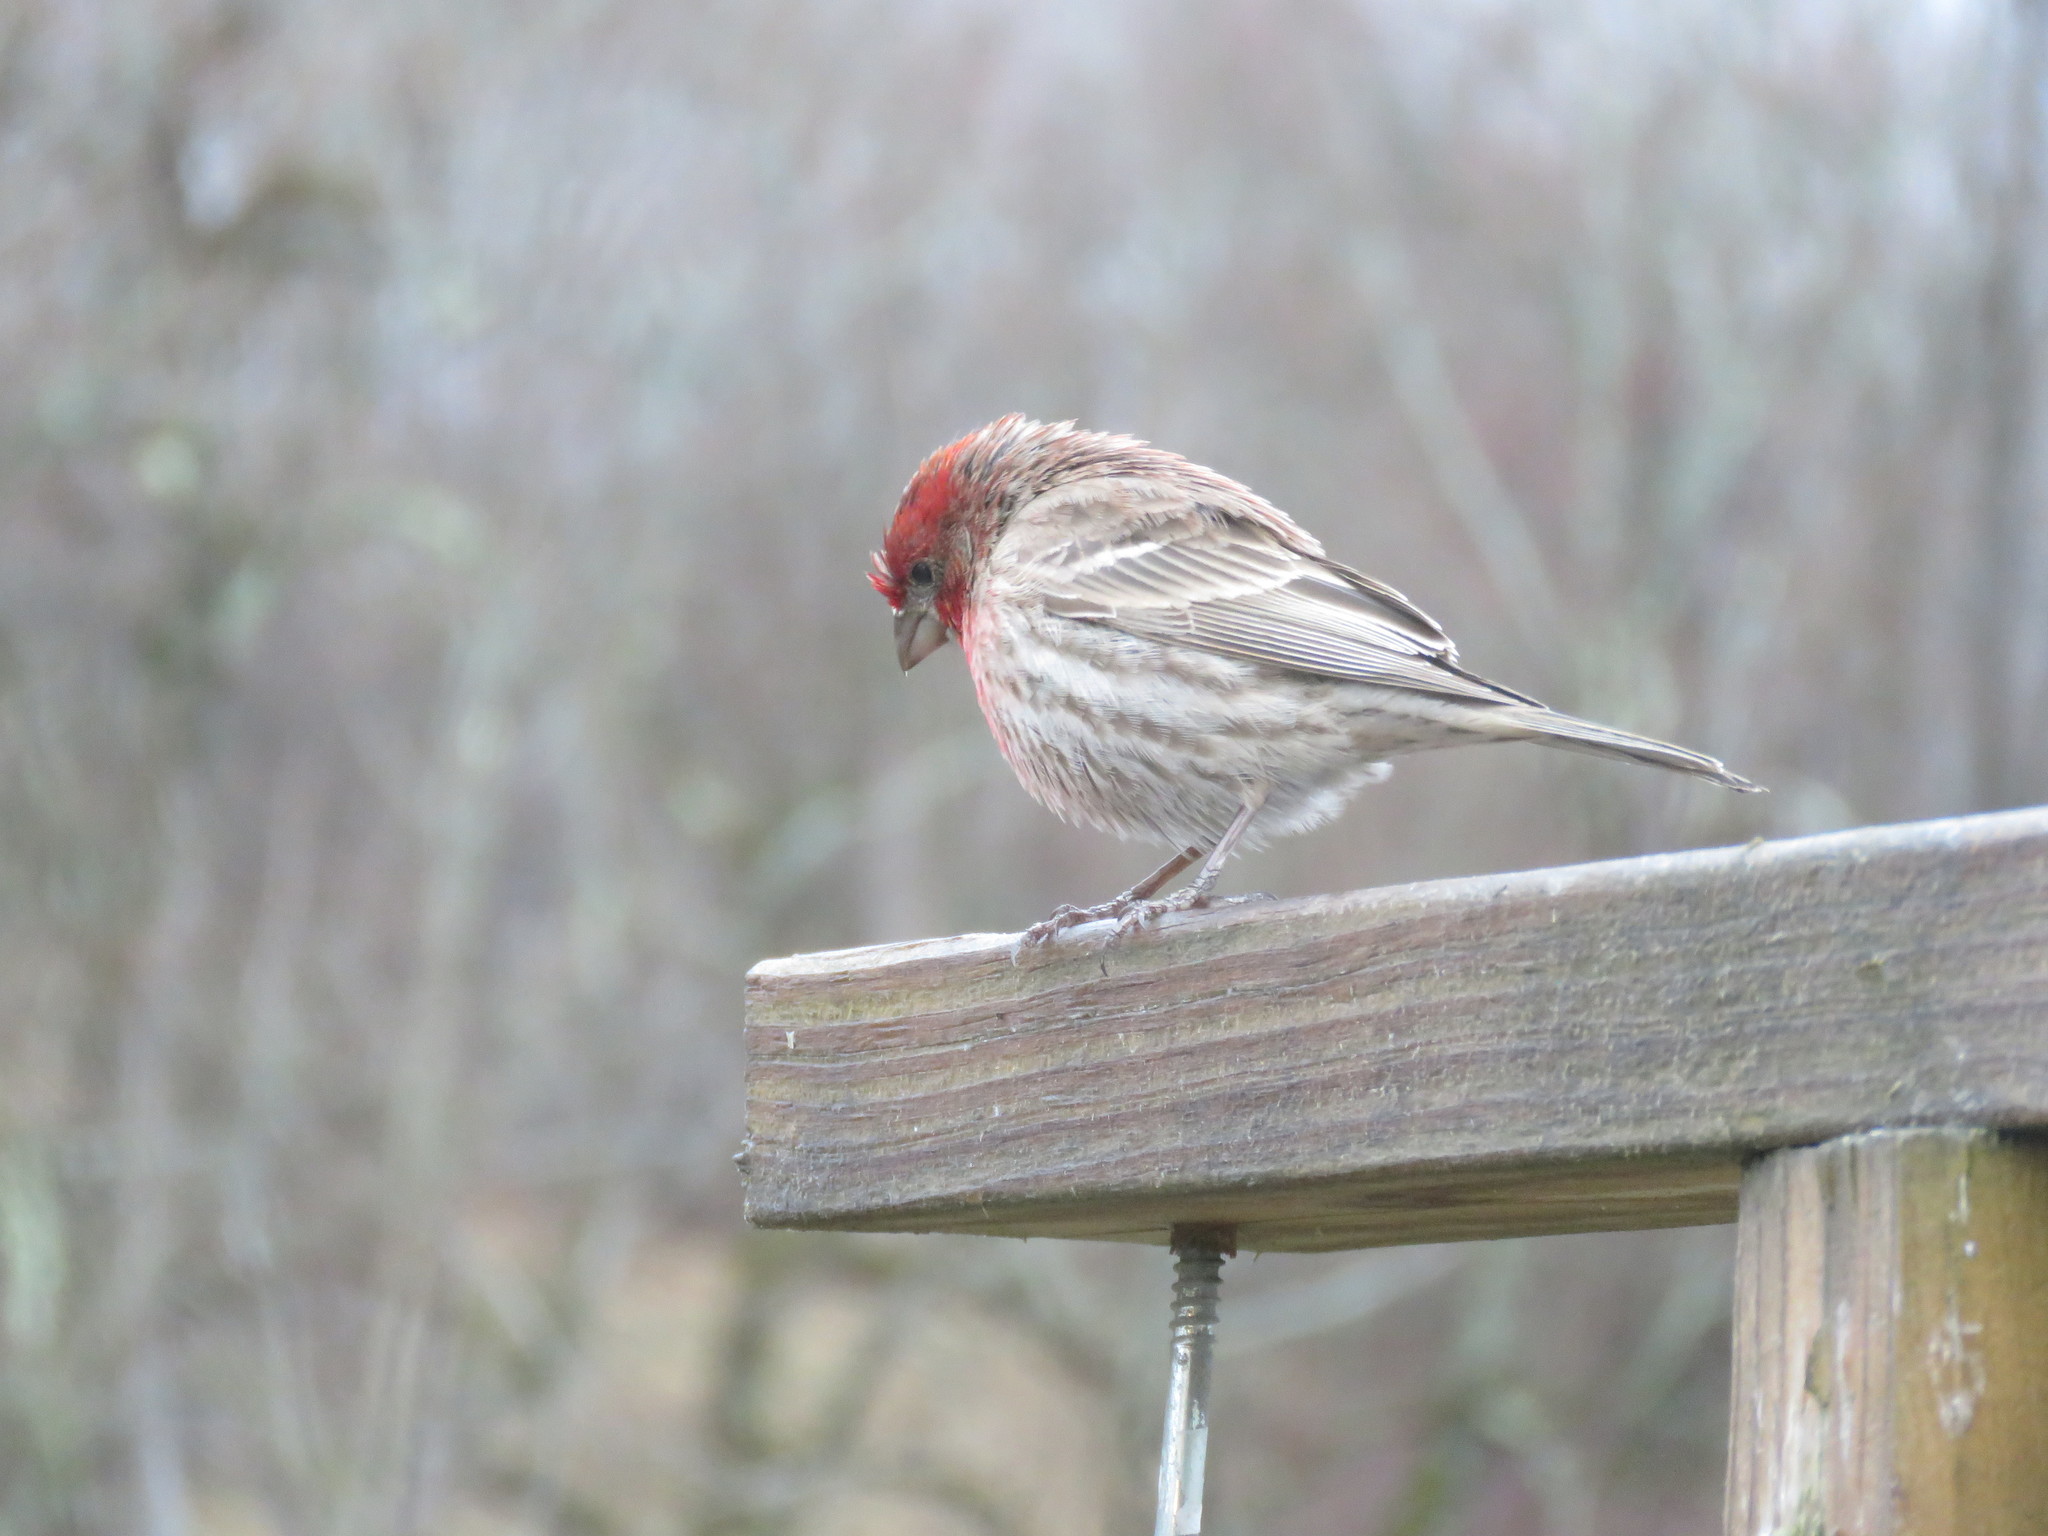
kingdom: Animalia
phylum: Chordata
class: Aves
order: Passeriformes
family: Fringillidae
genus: Haemorhous
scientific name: Haemorhous mexicanus
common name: House finch
